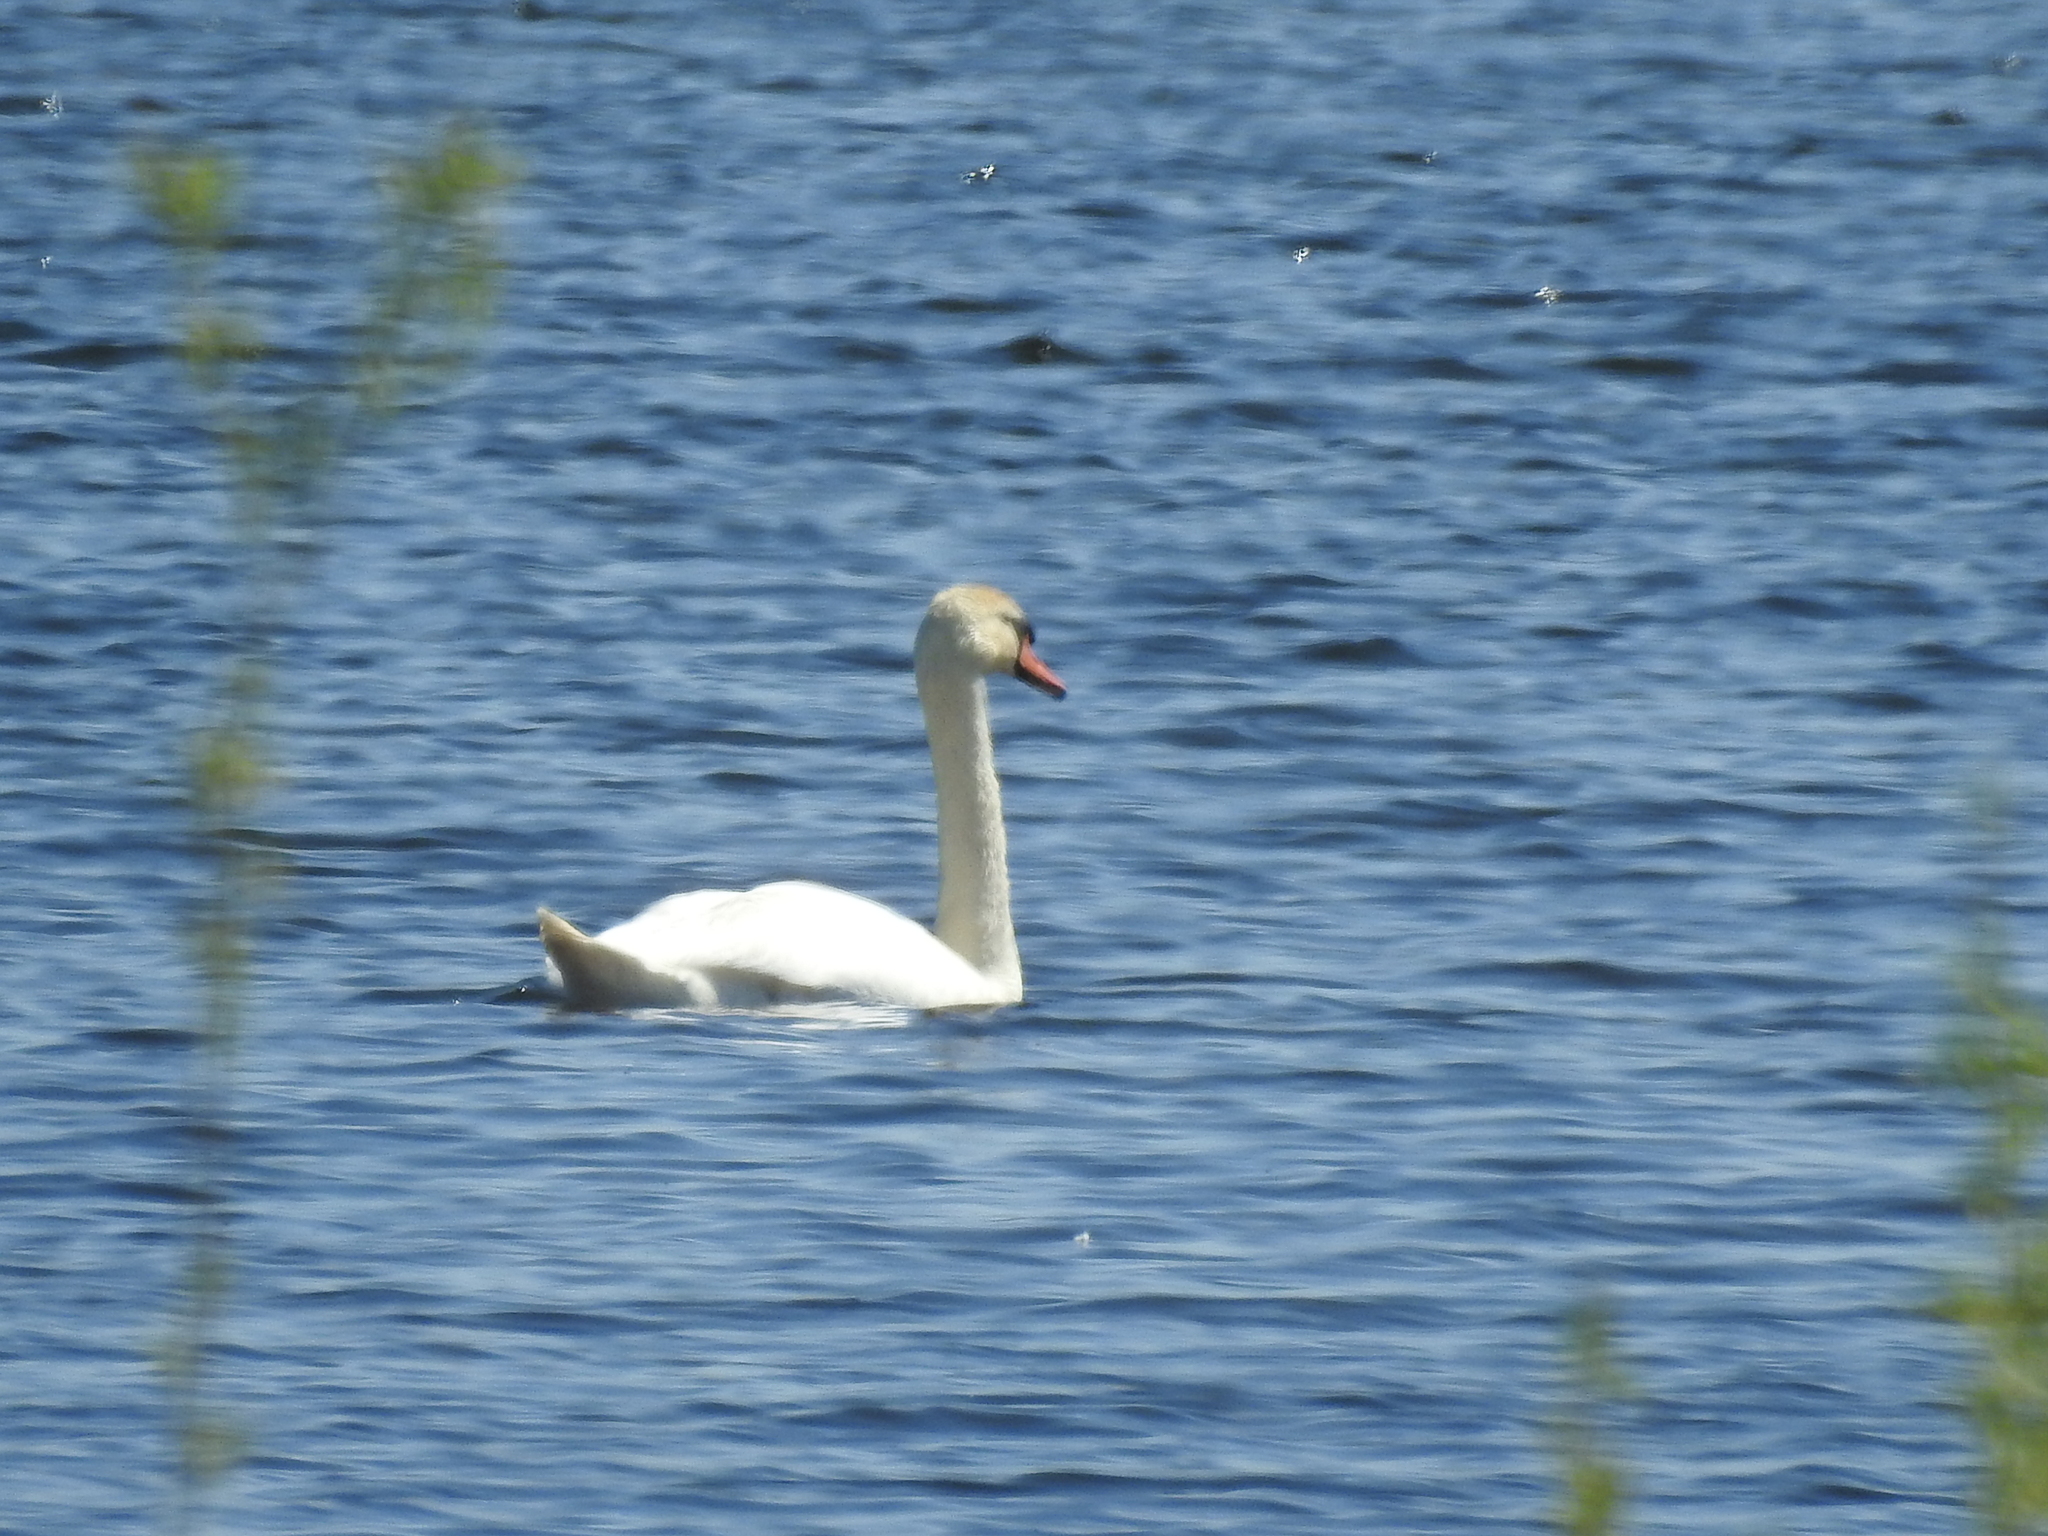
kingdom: Animalia
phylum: Chordata
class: Aves
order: Anseriformes
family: Anatidae
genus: Cygnus
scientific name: Cygnus olor
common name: Mute swan
